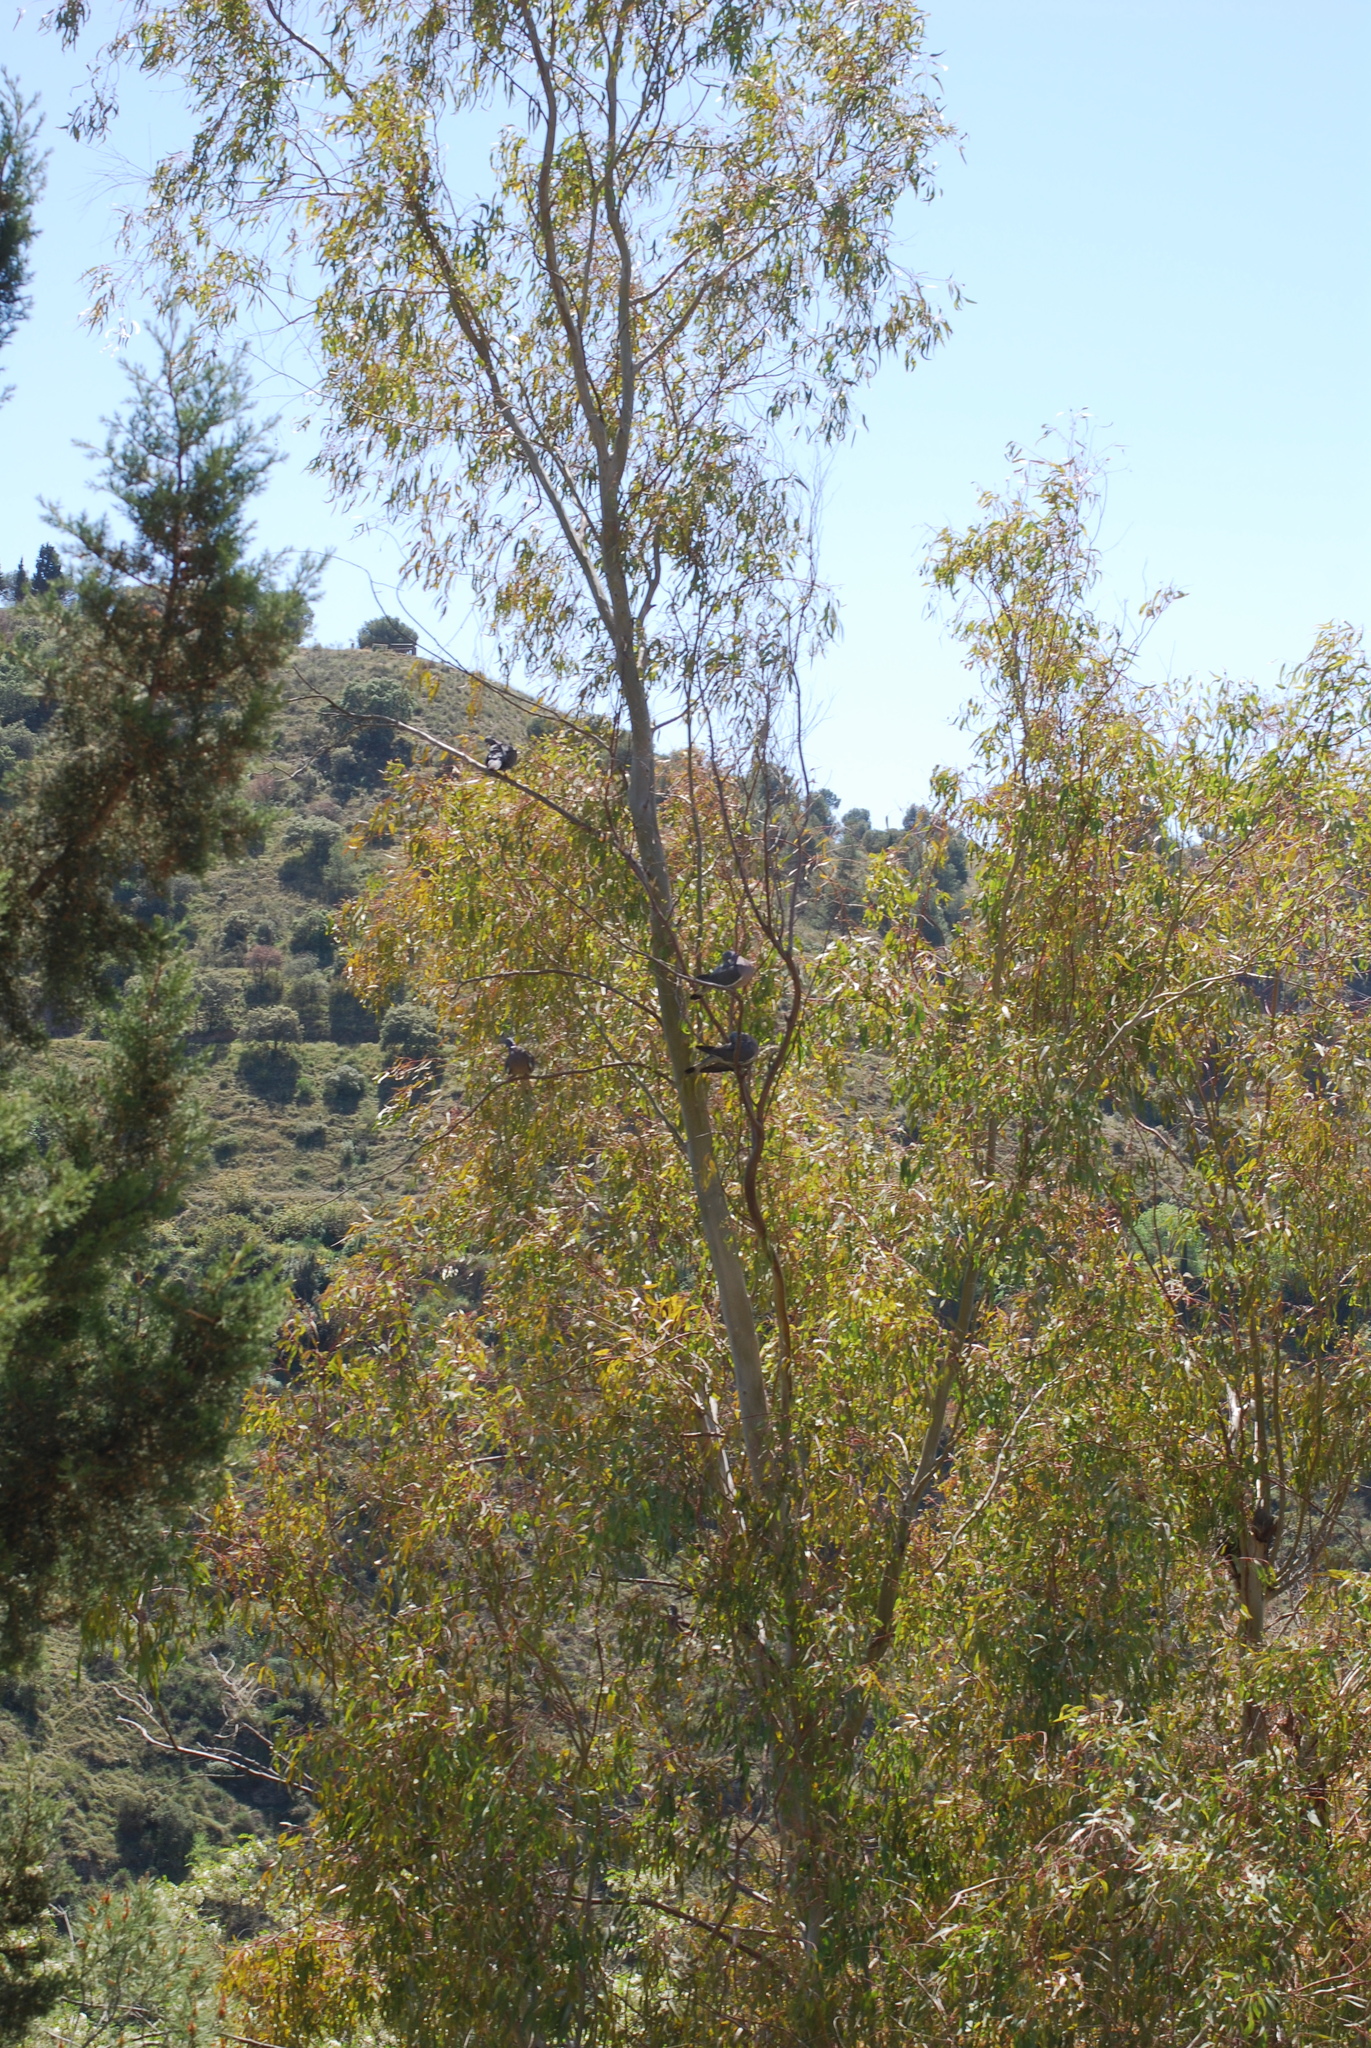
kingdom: Animalia
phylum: Chordata
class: Aves
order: Columbiformes
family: Columbidae
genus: Columba
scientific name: Columba palumbus
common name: Common wood pigeon
